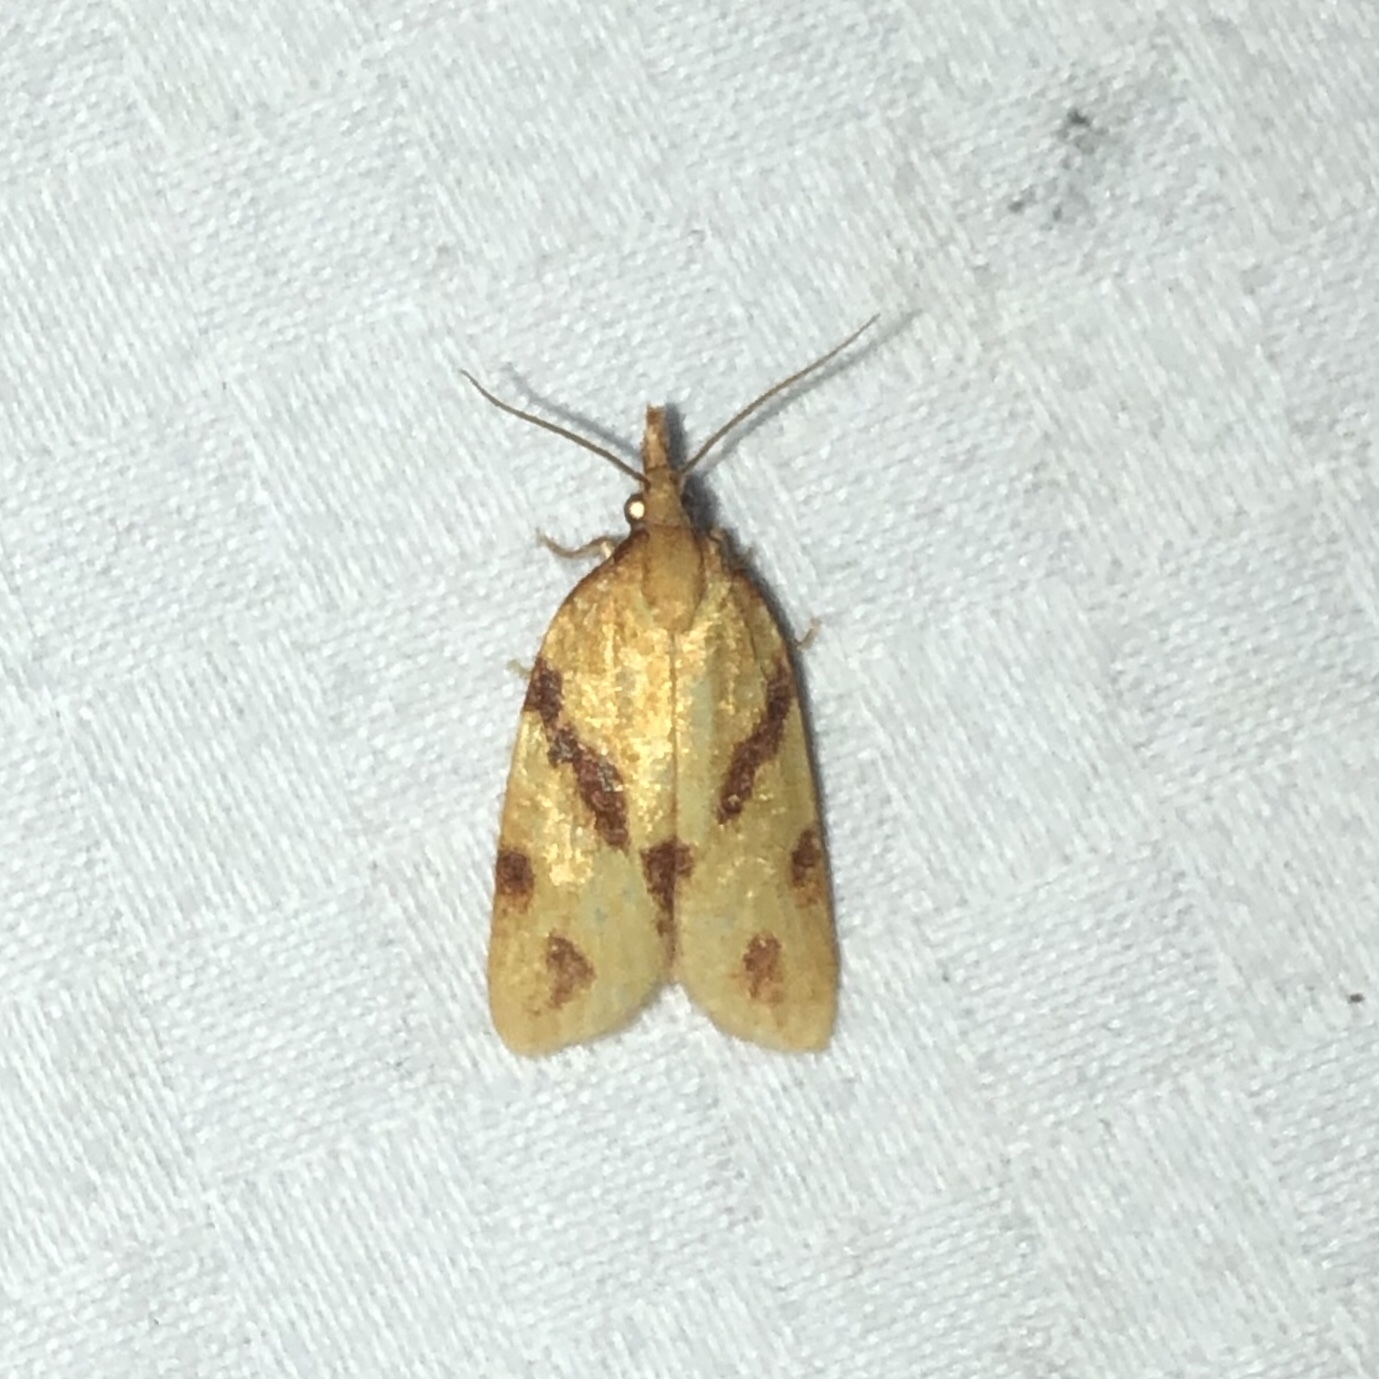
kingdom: Animalia
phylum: Arthropoda
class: Insecta
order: Lepidoptera
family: Tortricidae
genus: Sparganothis
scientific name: Sparganothis unifasciana
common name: One-lined sparganothis moth
